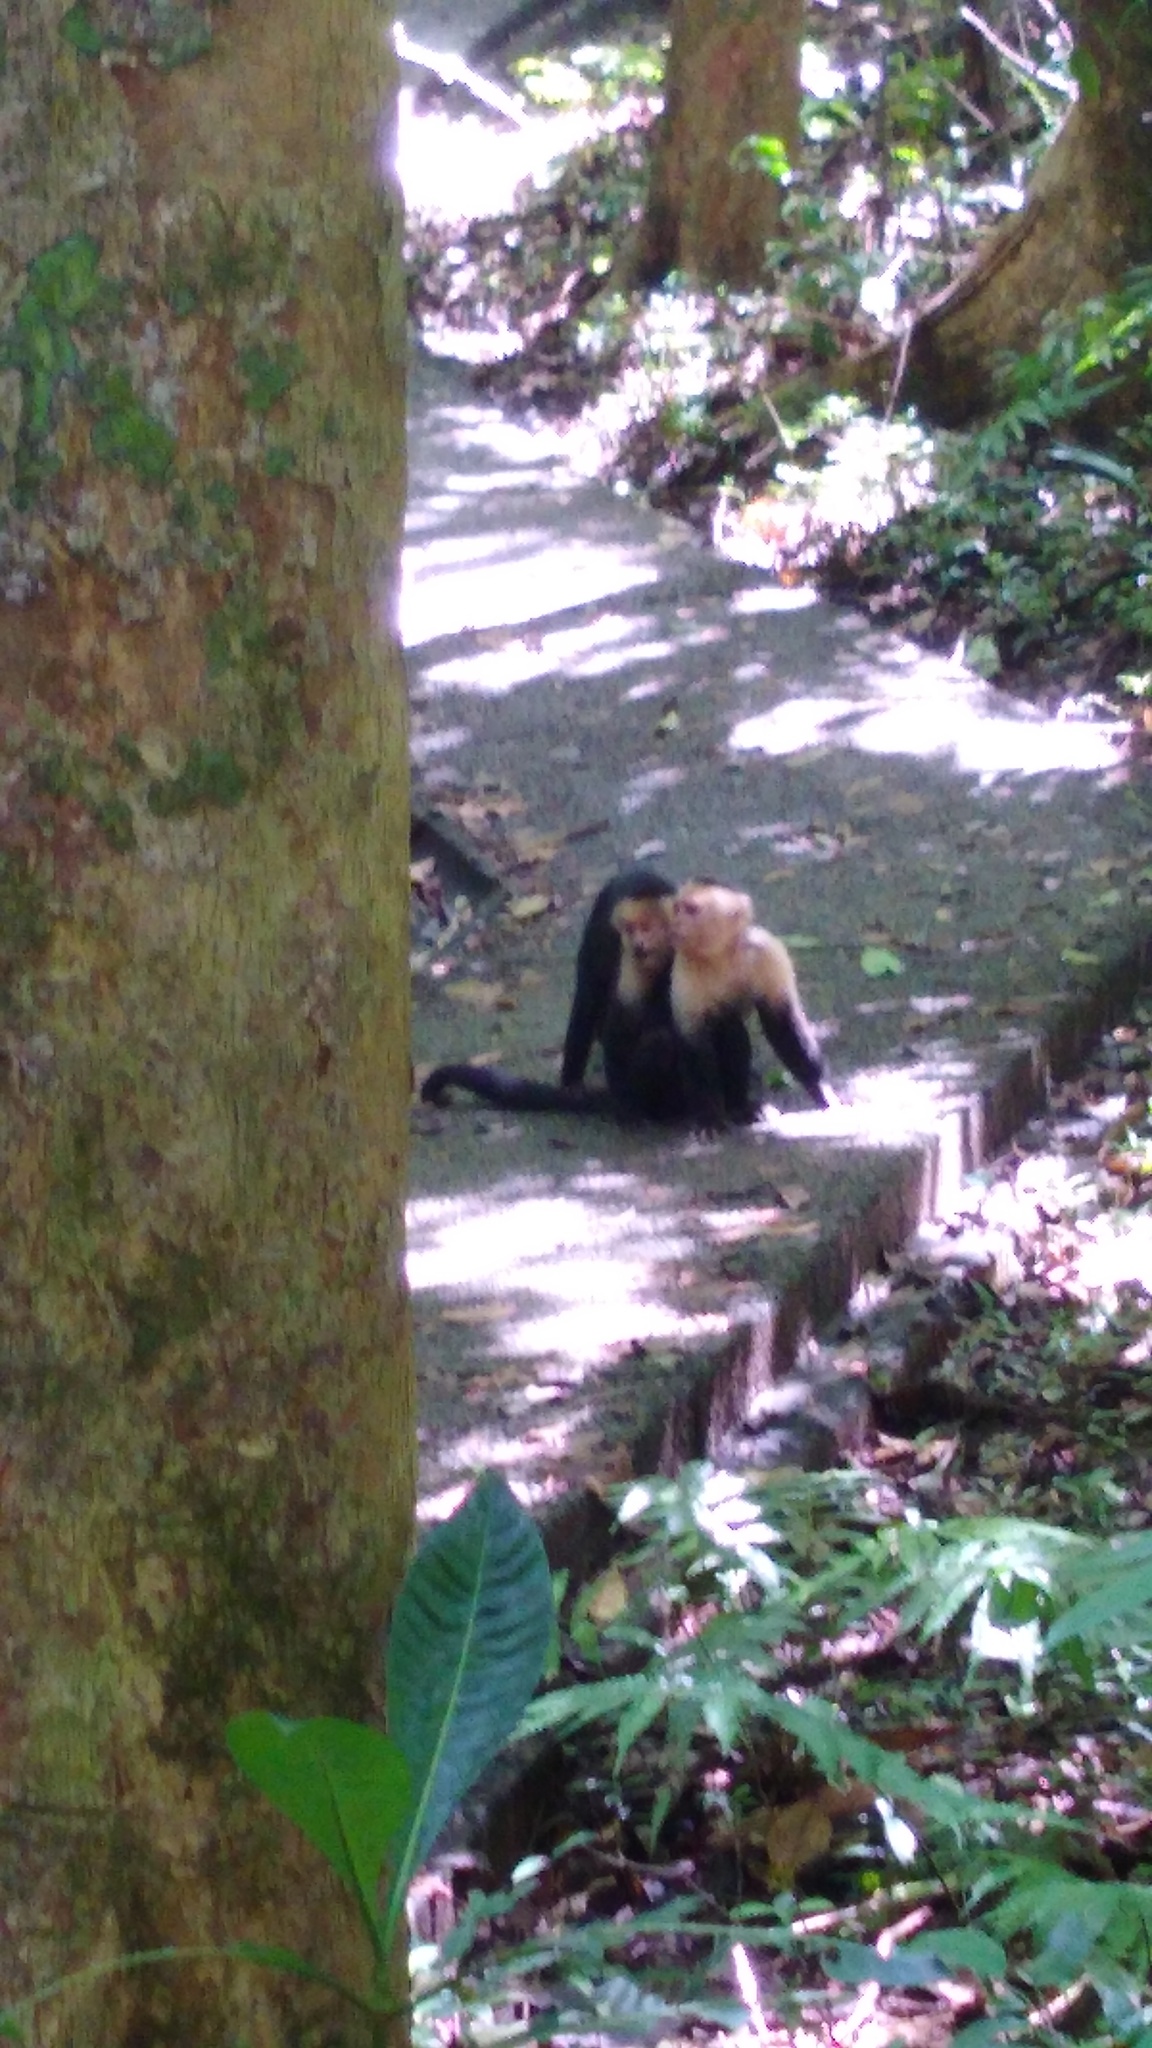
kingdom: Animalia
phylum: Chordata
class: Mammalia
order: Primates
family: Cebidae
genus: Cebus
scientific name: Cebus imitator
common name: Panamanian white-faced capuchin
